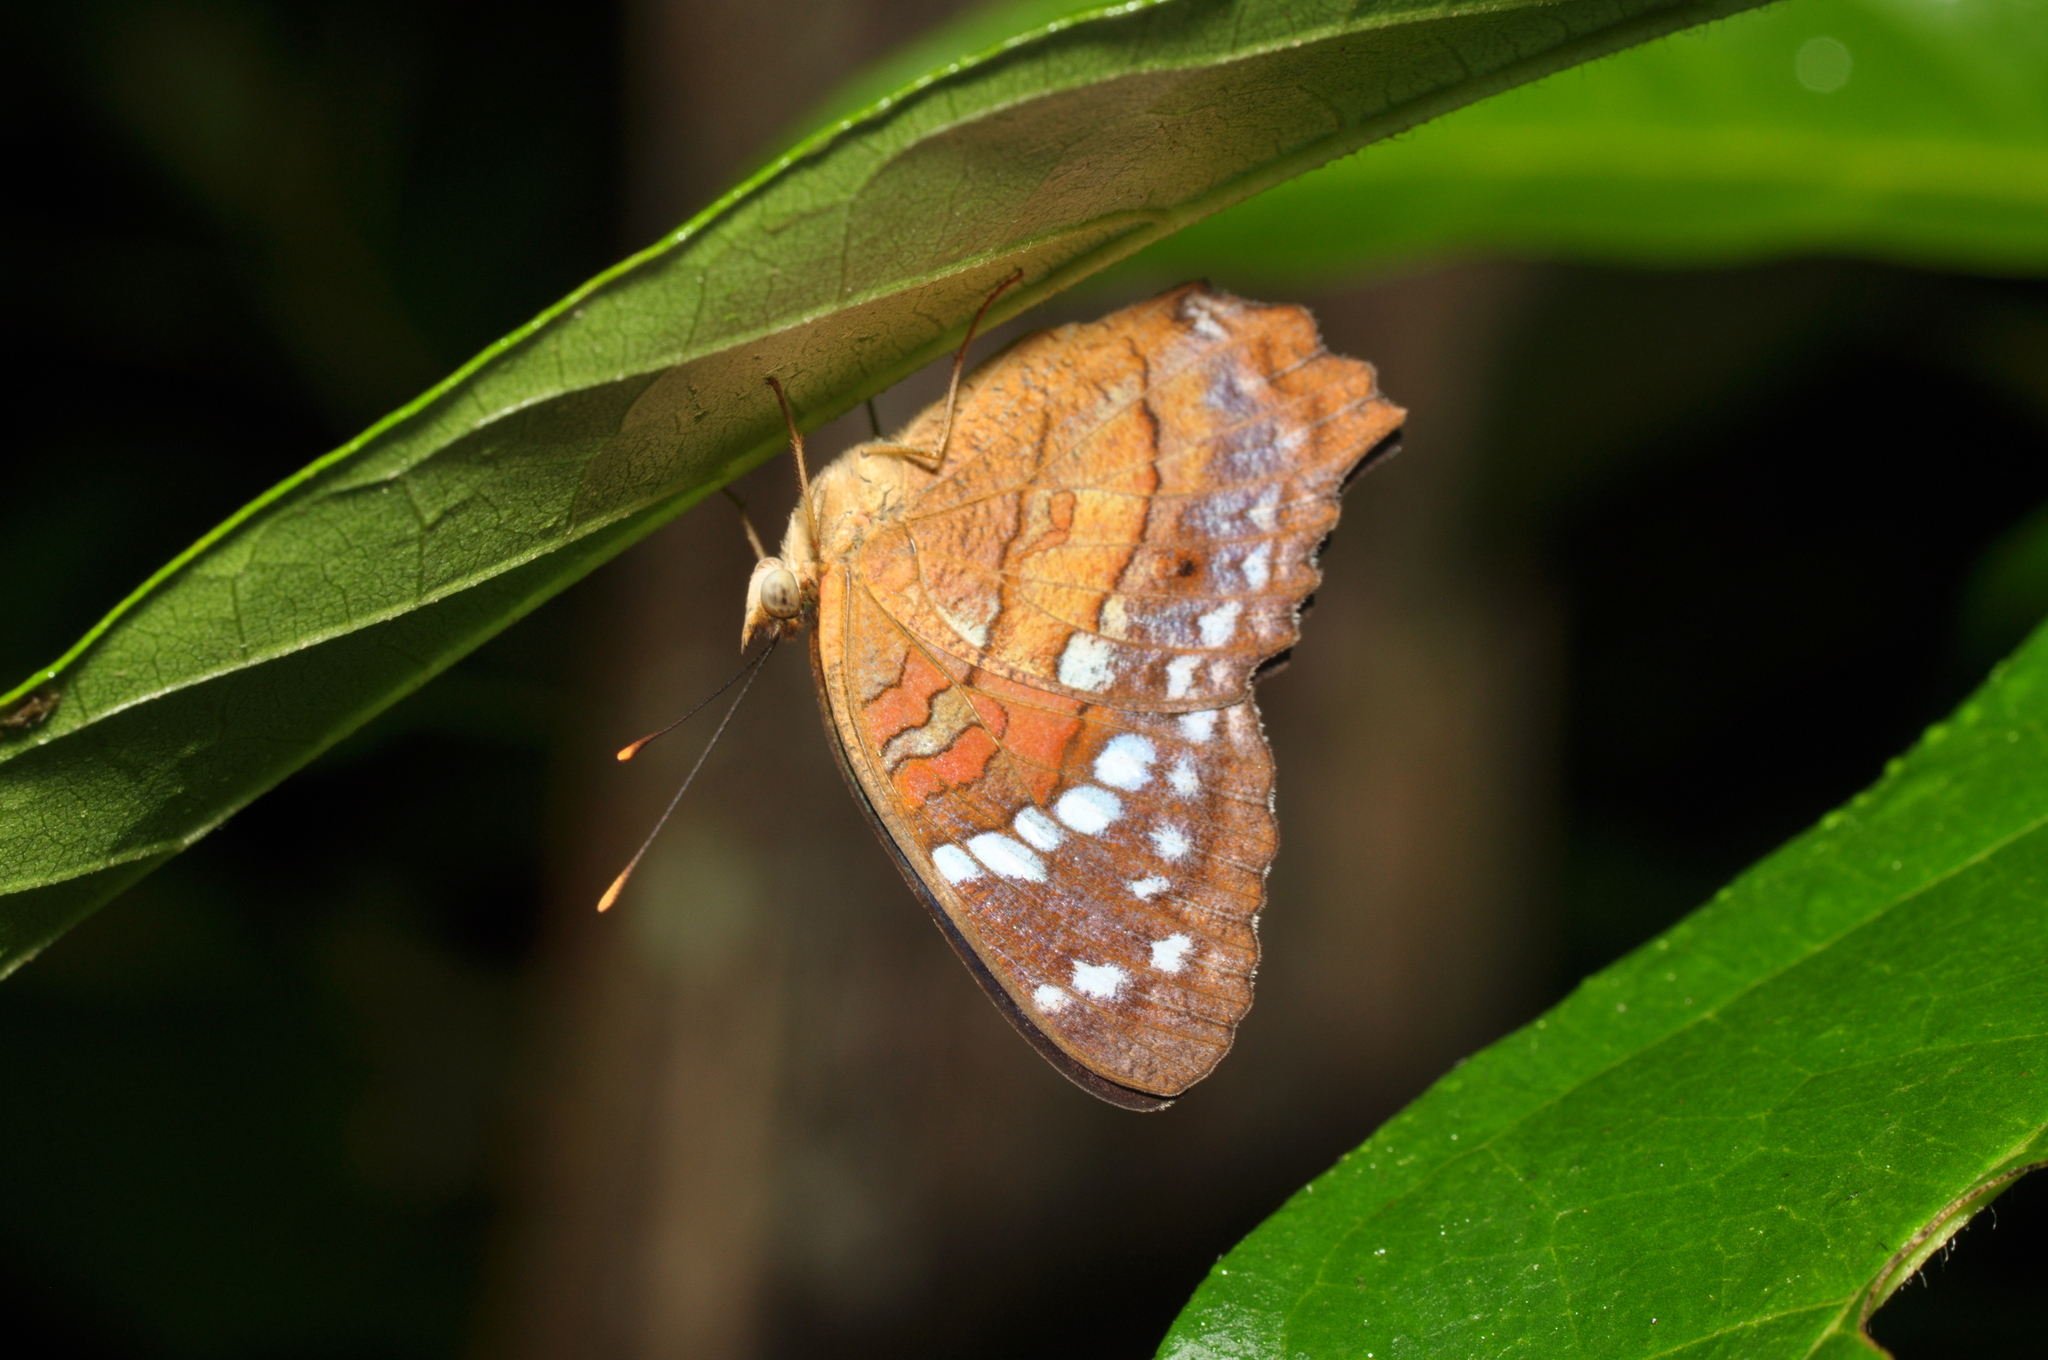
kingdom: Animalia
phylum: Arthropoda
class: Insecta
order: Lepidoptera
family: Nymphalidae
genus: Anartia
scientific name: Anartia amathea
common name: Red peacock
